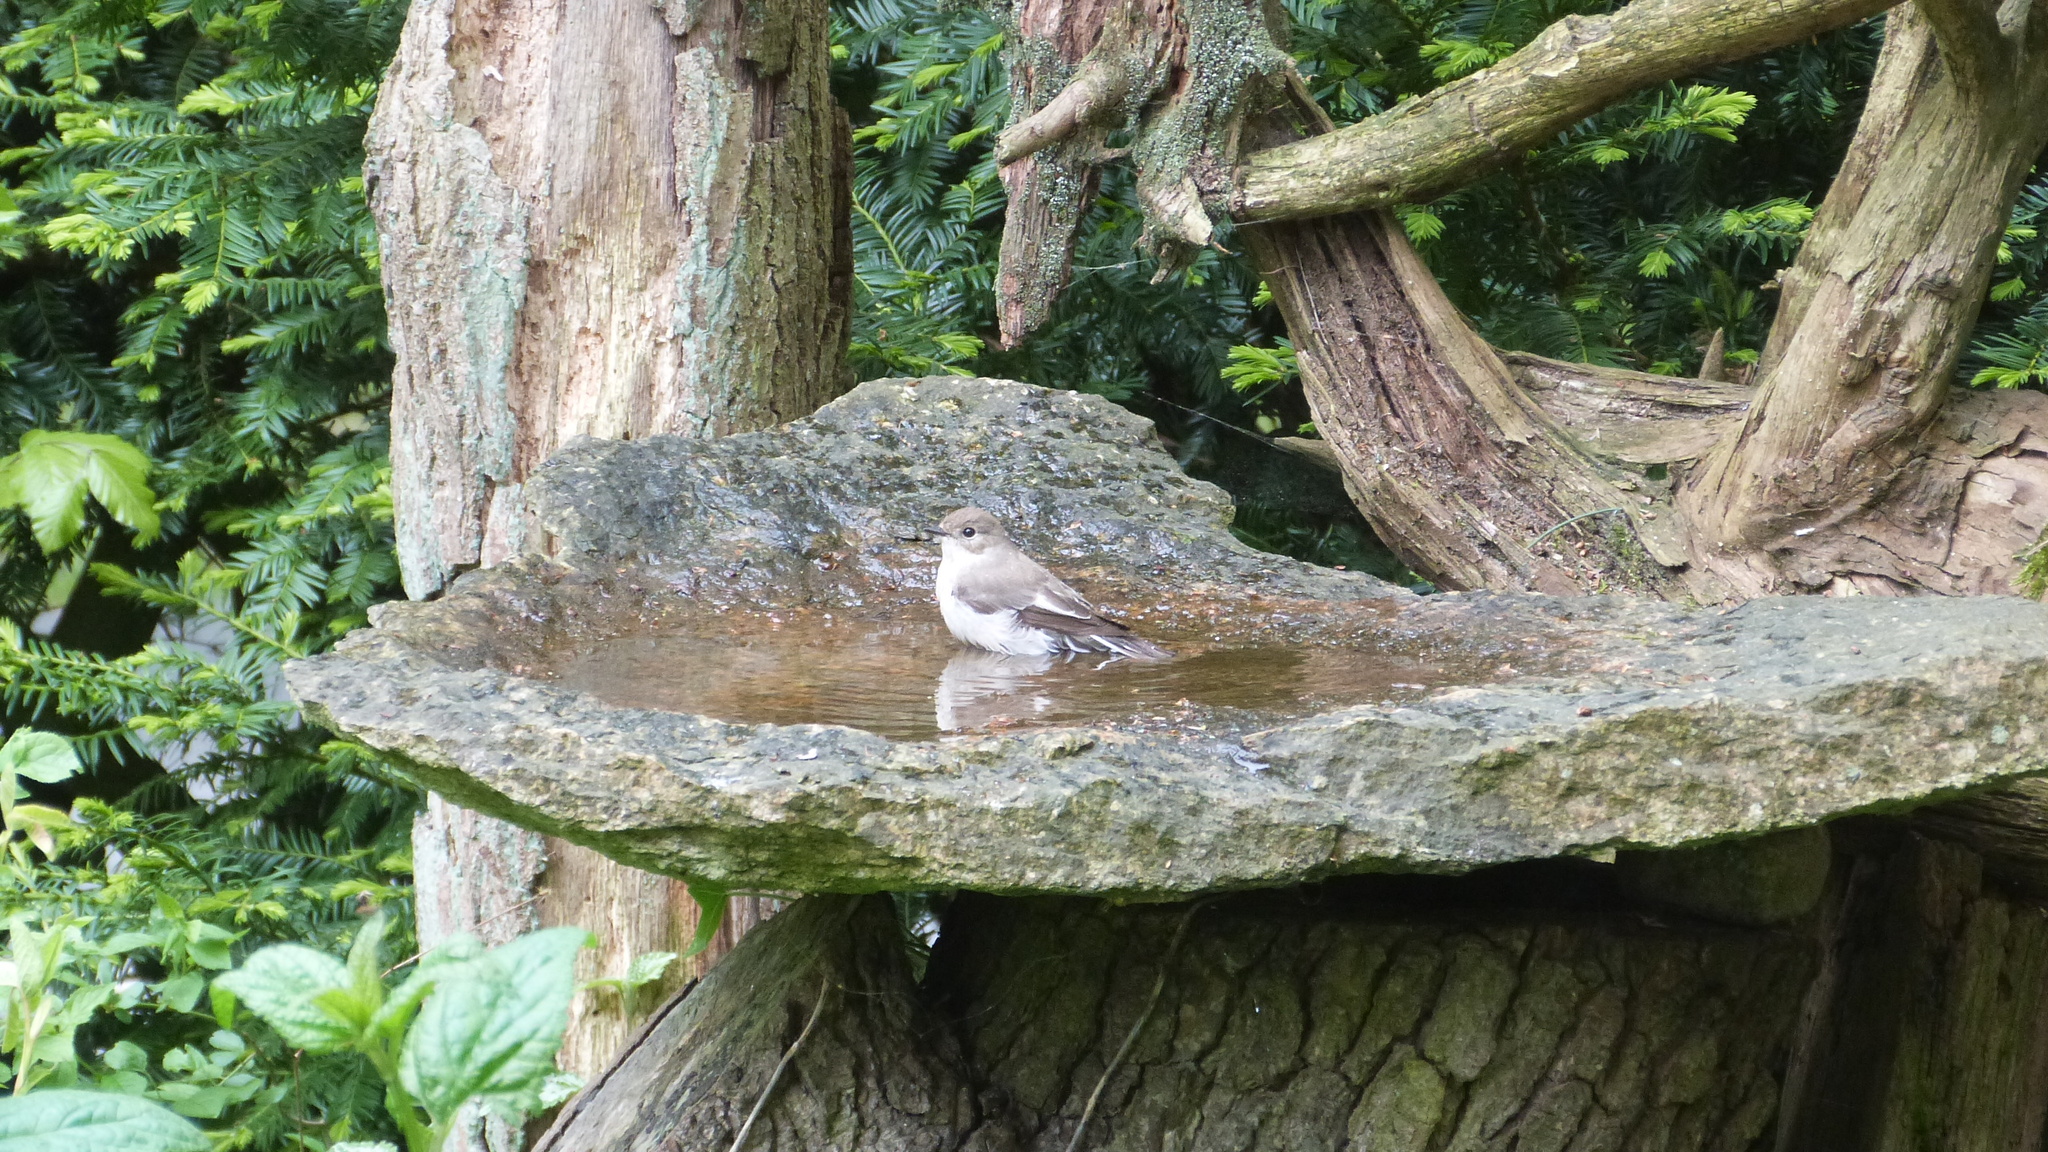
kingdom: Animalia
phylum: Chordata
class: Aves
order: Passeriformes
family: Muscicapidae
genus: Ficedula
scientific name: Ficedula hypoleuca
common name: European pied flycatcher
